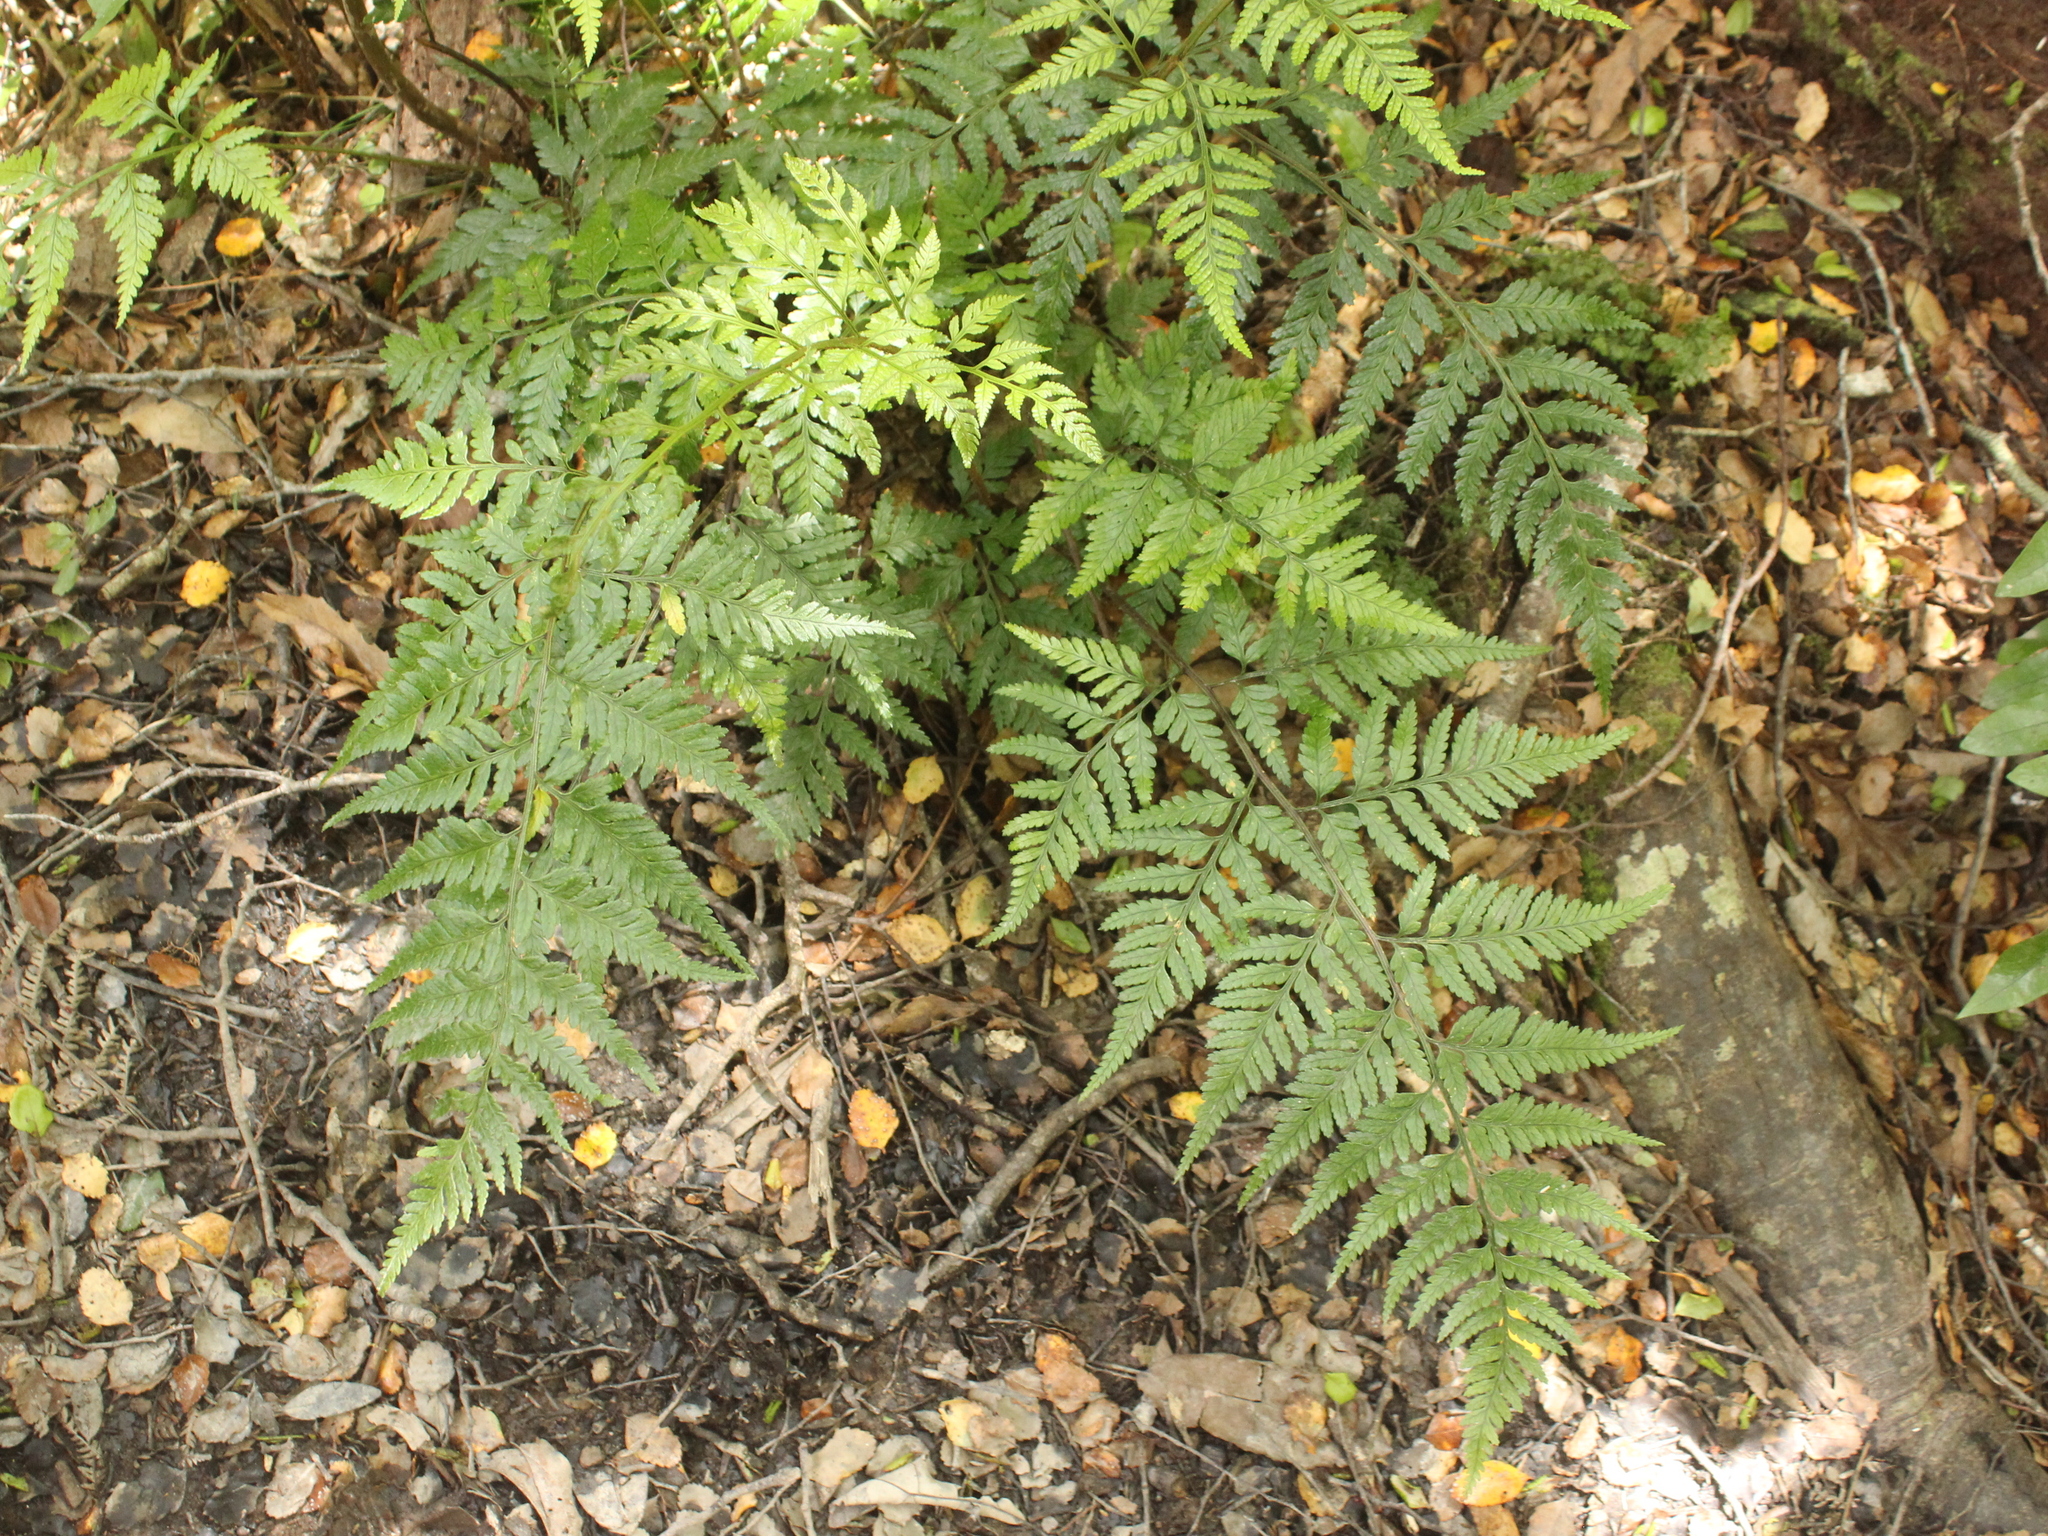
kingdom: Plantae
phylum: Tracheophyta
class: Polypodiopsida
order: Polypodiales
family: Dryopteridaceae
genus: Rumohra
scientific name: Rumohra adiantiformis
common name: Leather fern
